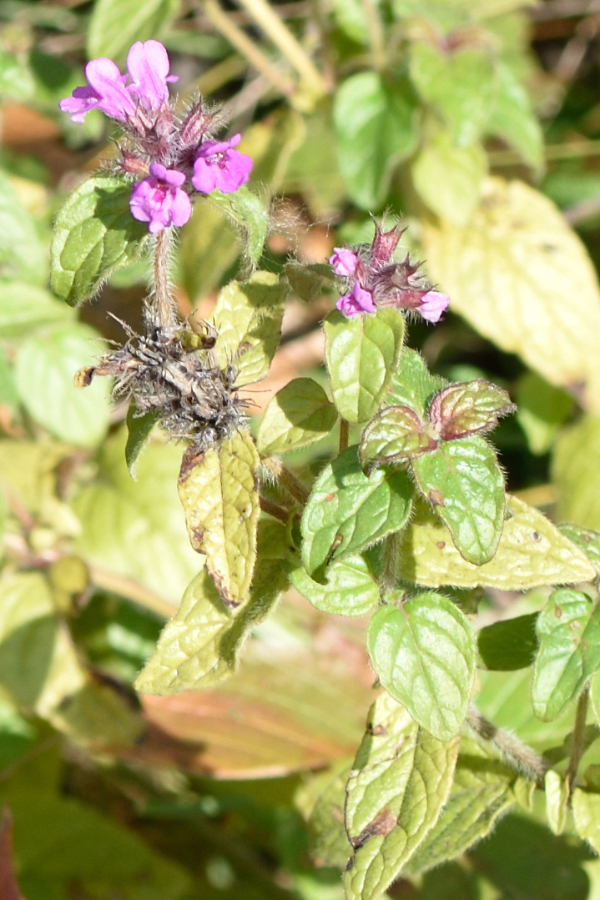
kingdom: Plantae
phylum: Tracheophyta
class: Magnoliopsida
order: Lamiales
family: Lamiaceae
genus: Clinopodium
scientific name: Clinopodium vulgare
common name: Wild basil
